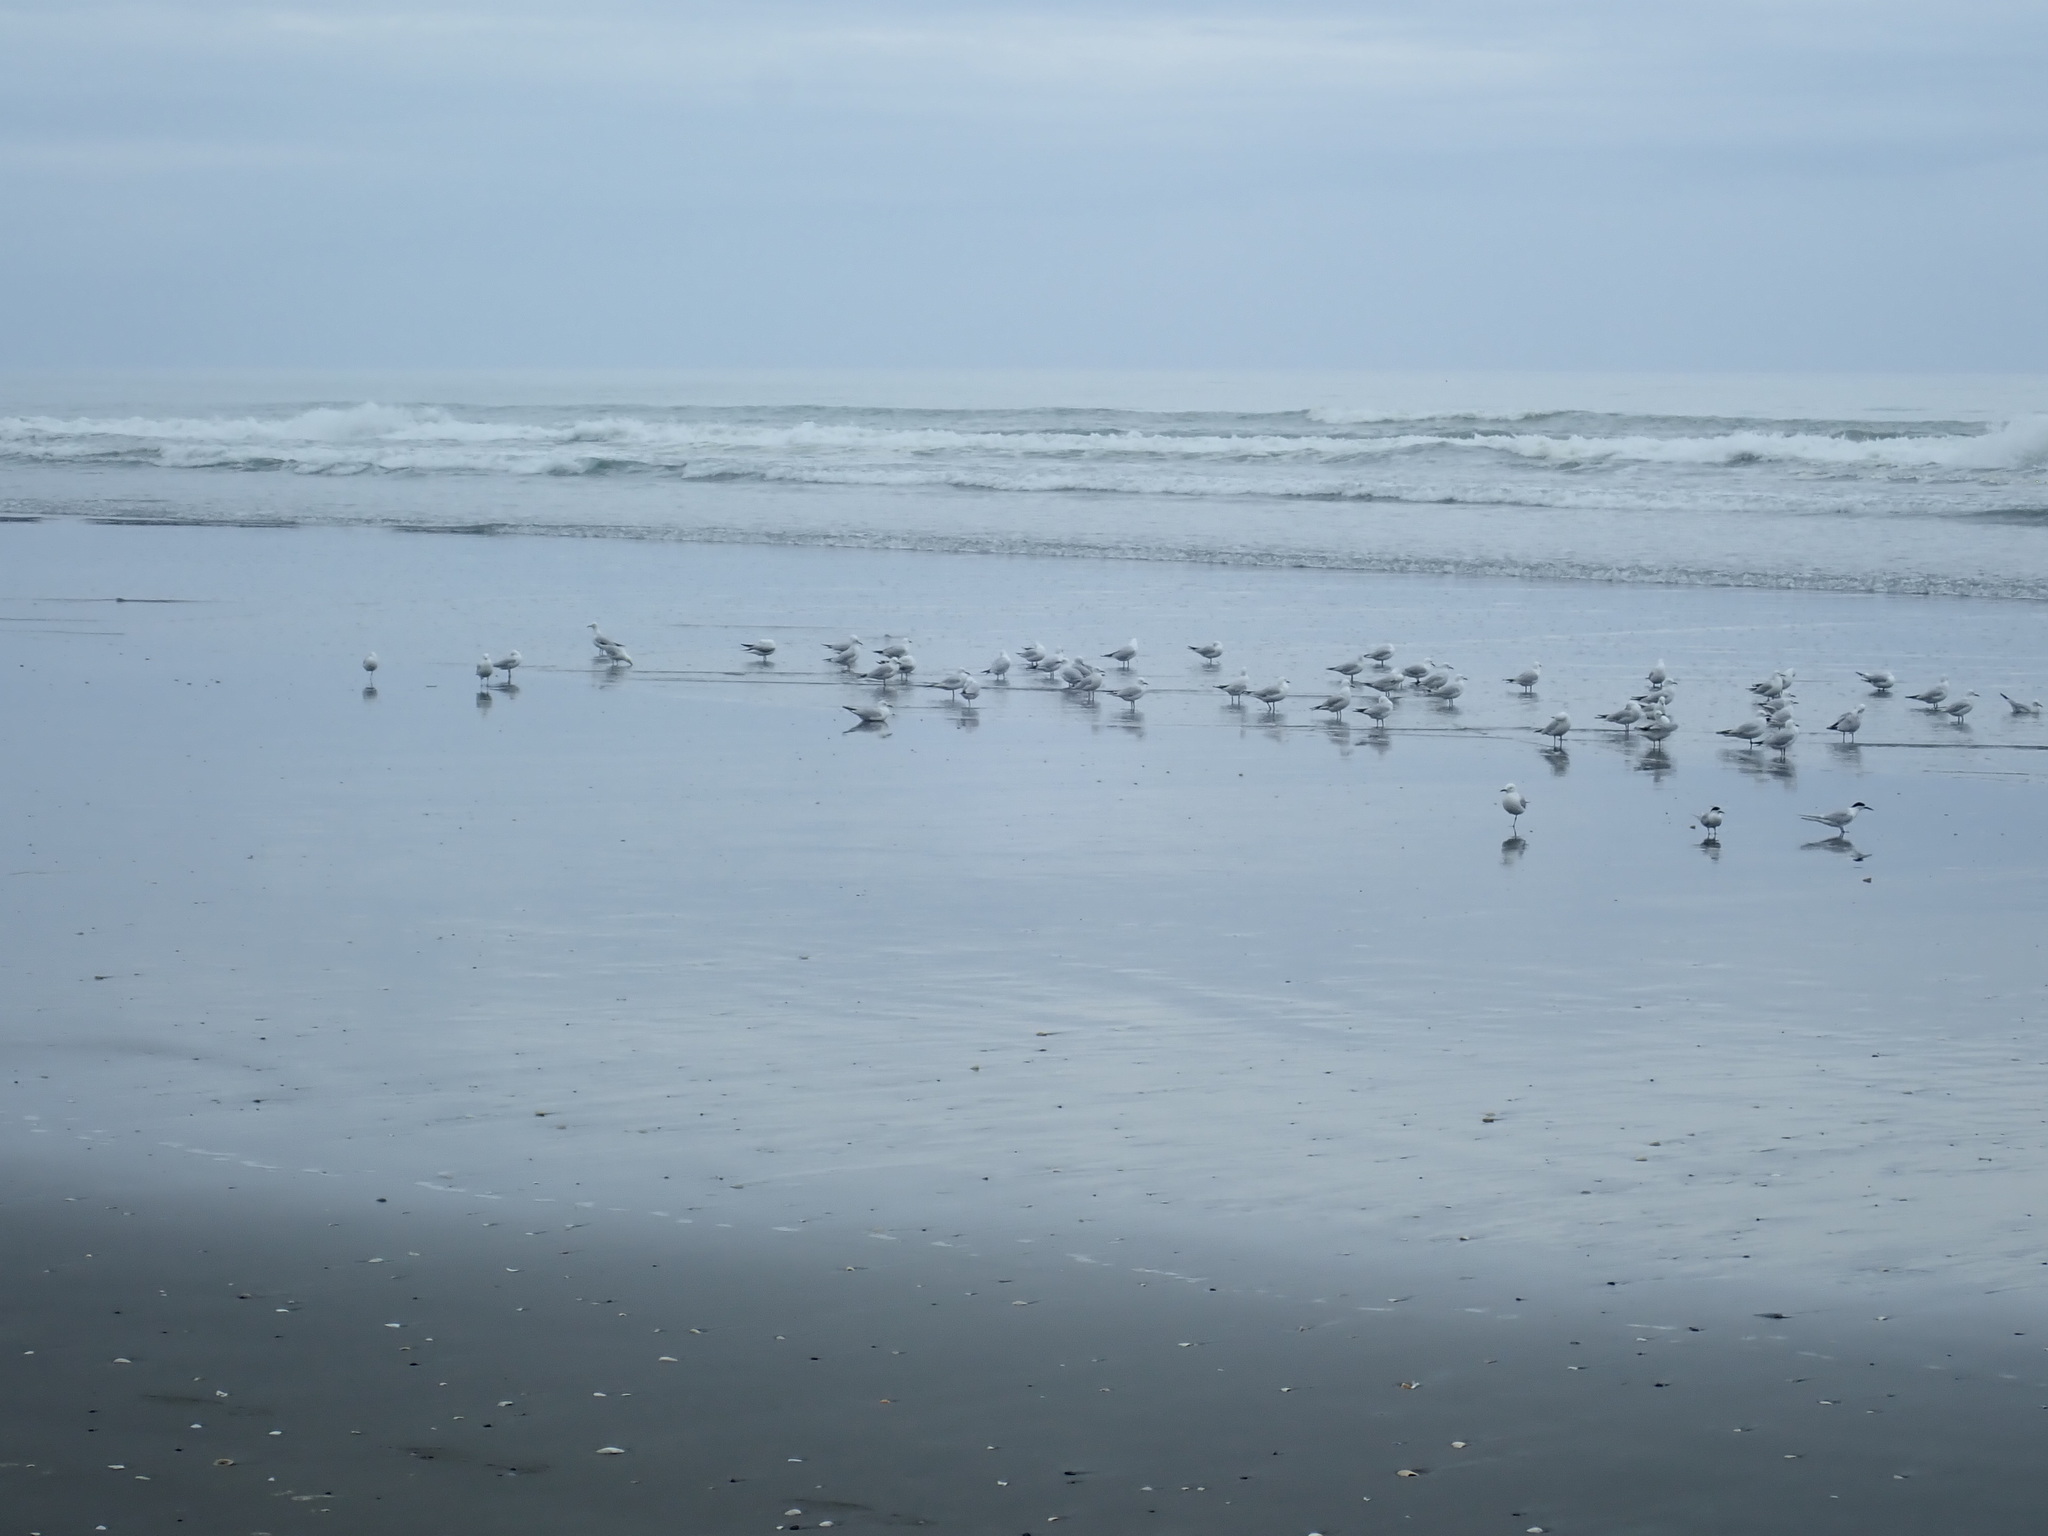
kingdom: Animalia
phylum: Chordata
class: Aves
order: Charadriiformes
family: Laridae
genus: Sterna
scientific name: Sterna striata
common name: White-fronted tern
